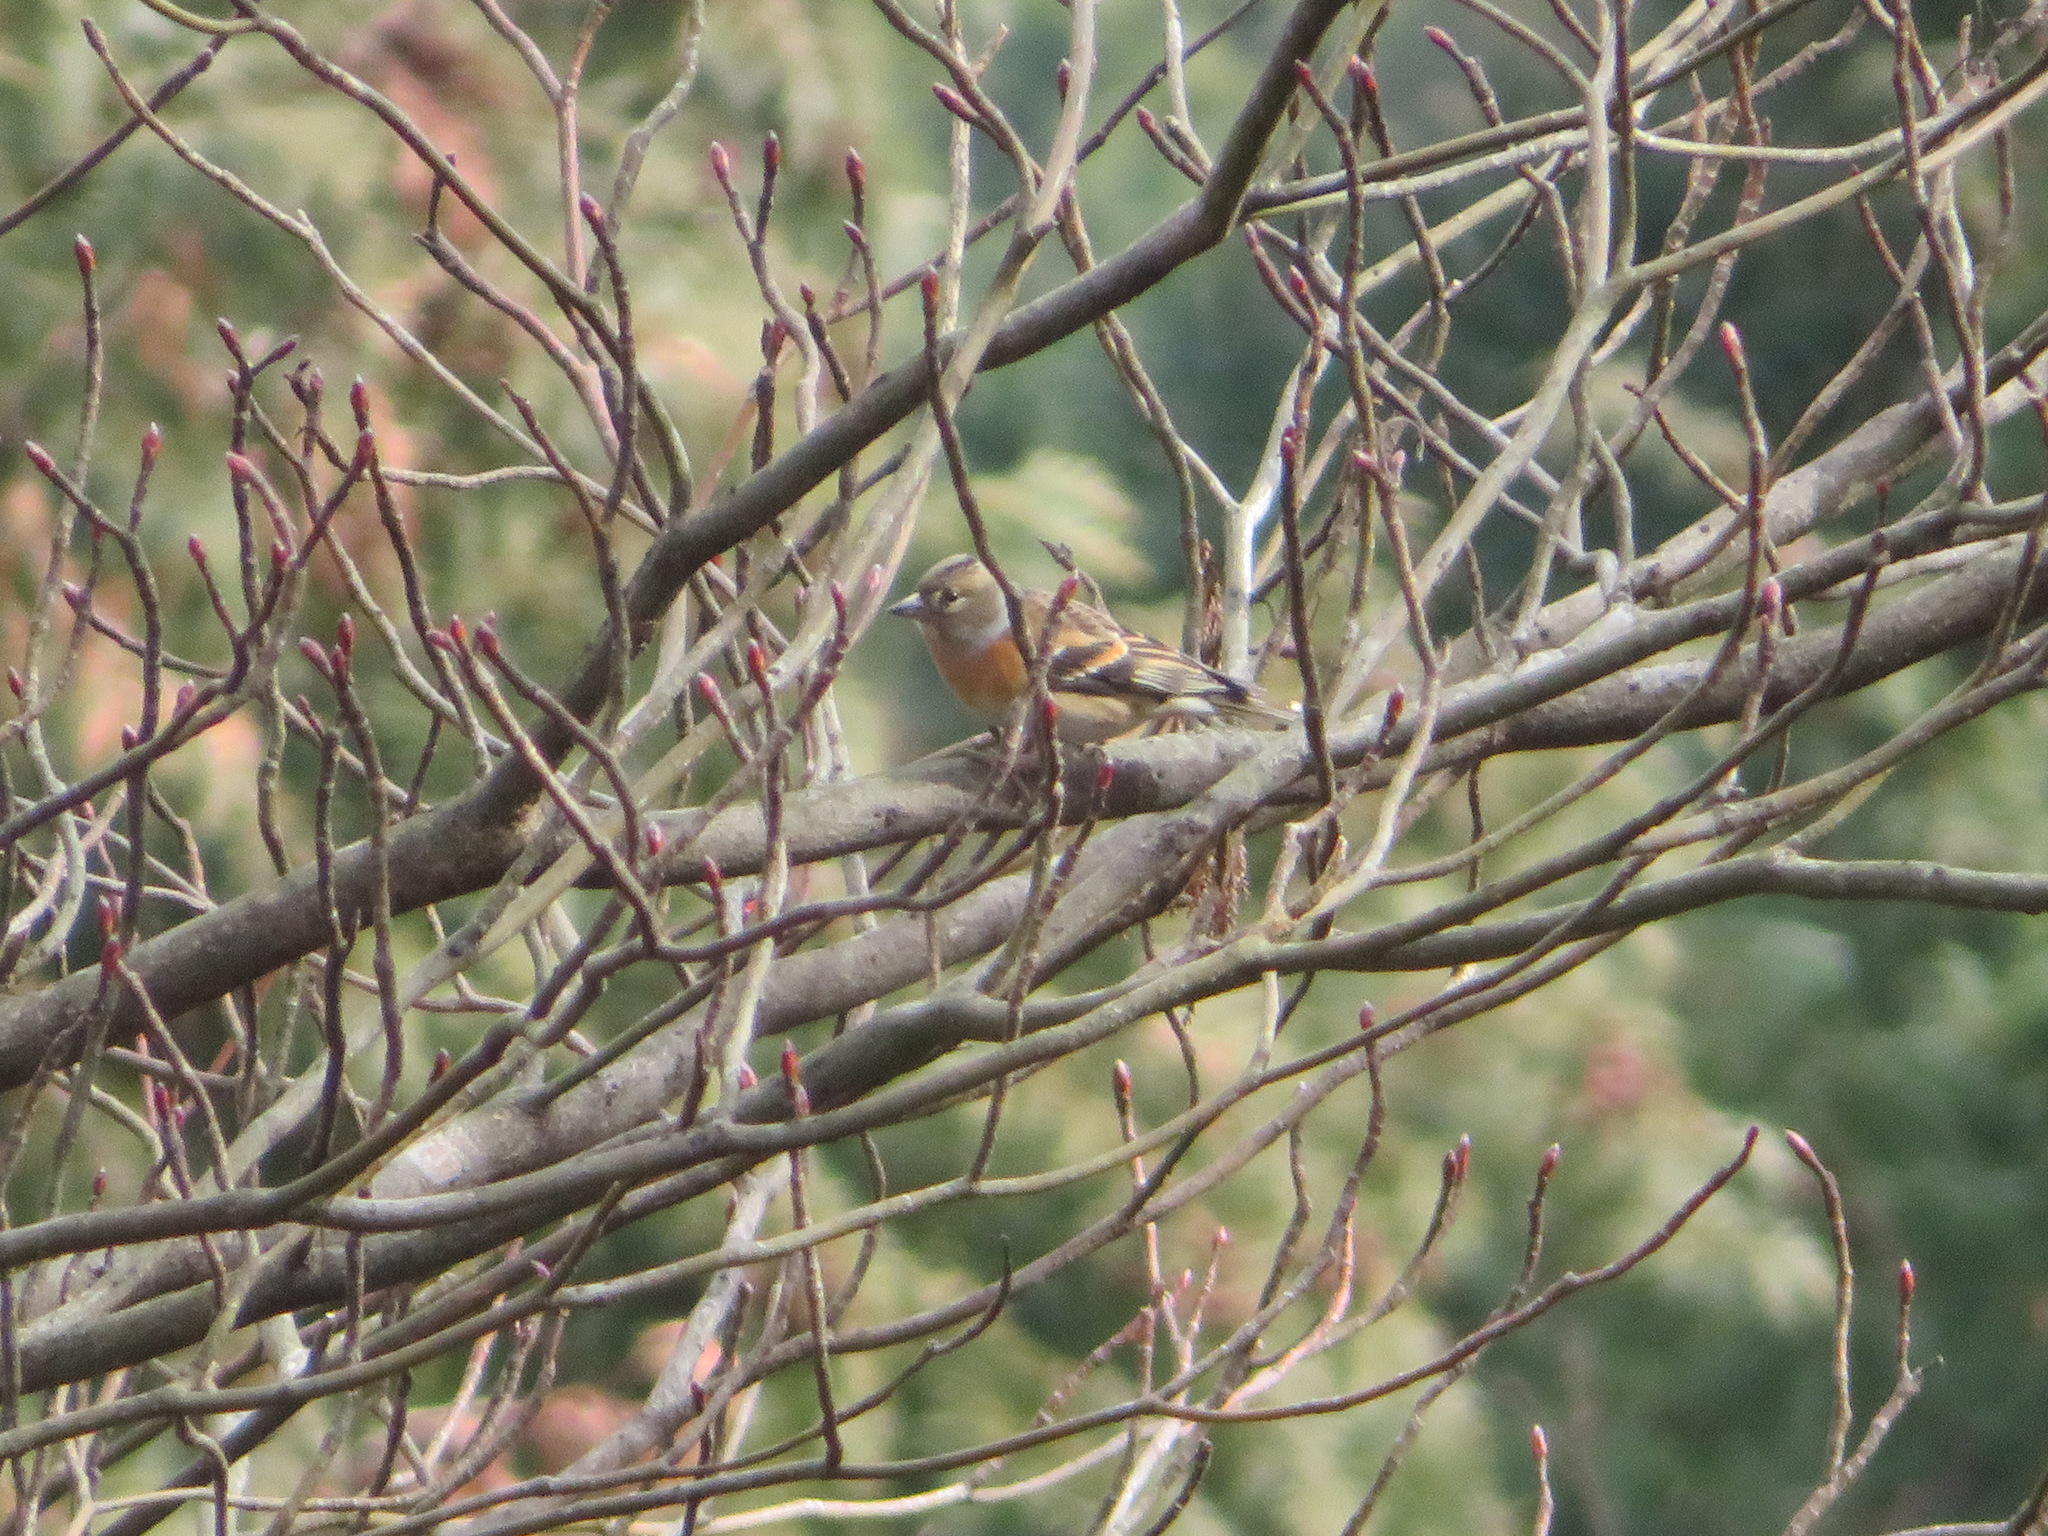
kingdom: Animalia
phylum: Chordata
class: Aves
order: Passeriformes
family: Fringillidae
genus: Fringilla
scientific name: Fringilla montifringilla
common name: Brambling
